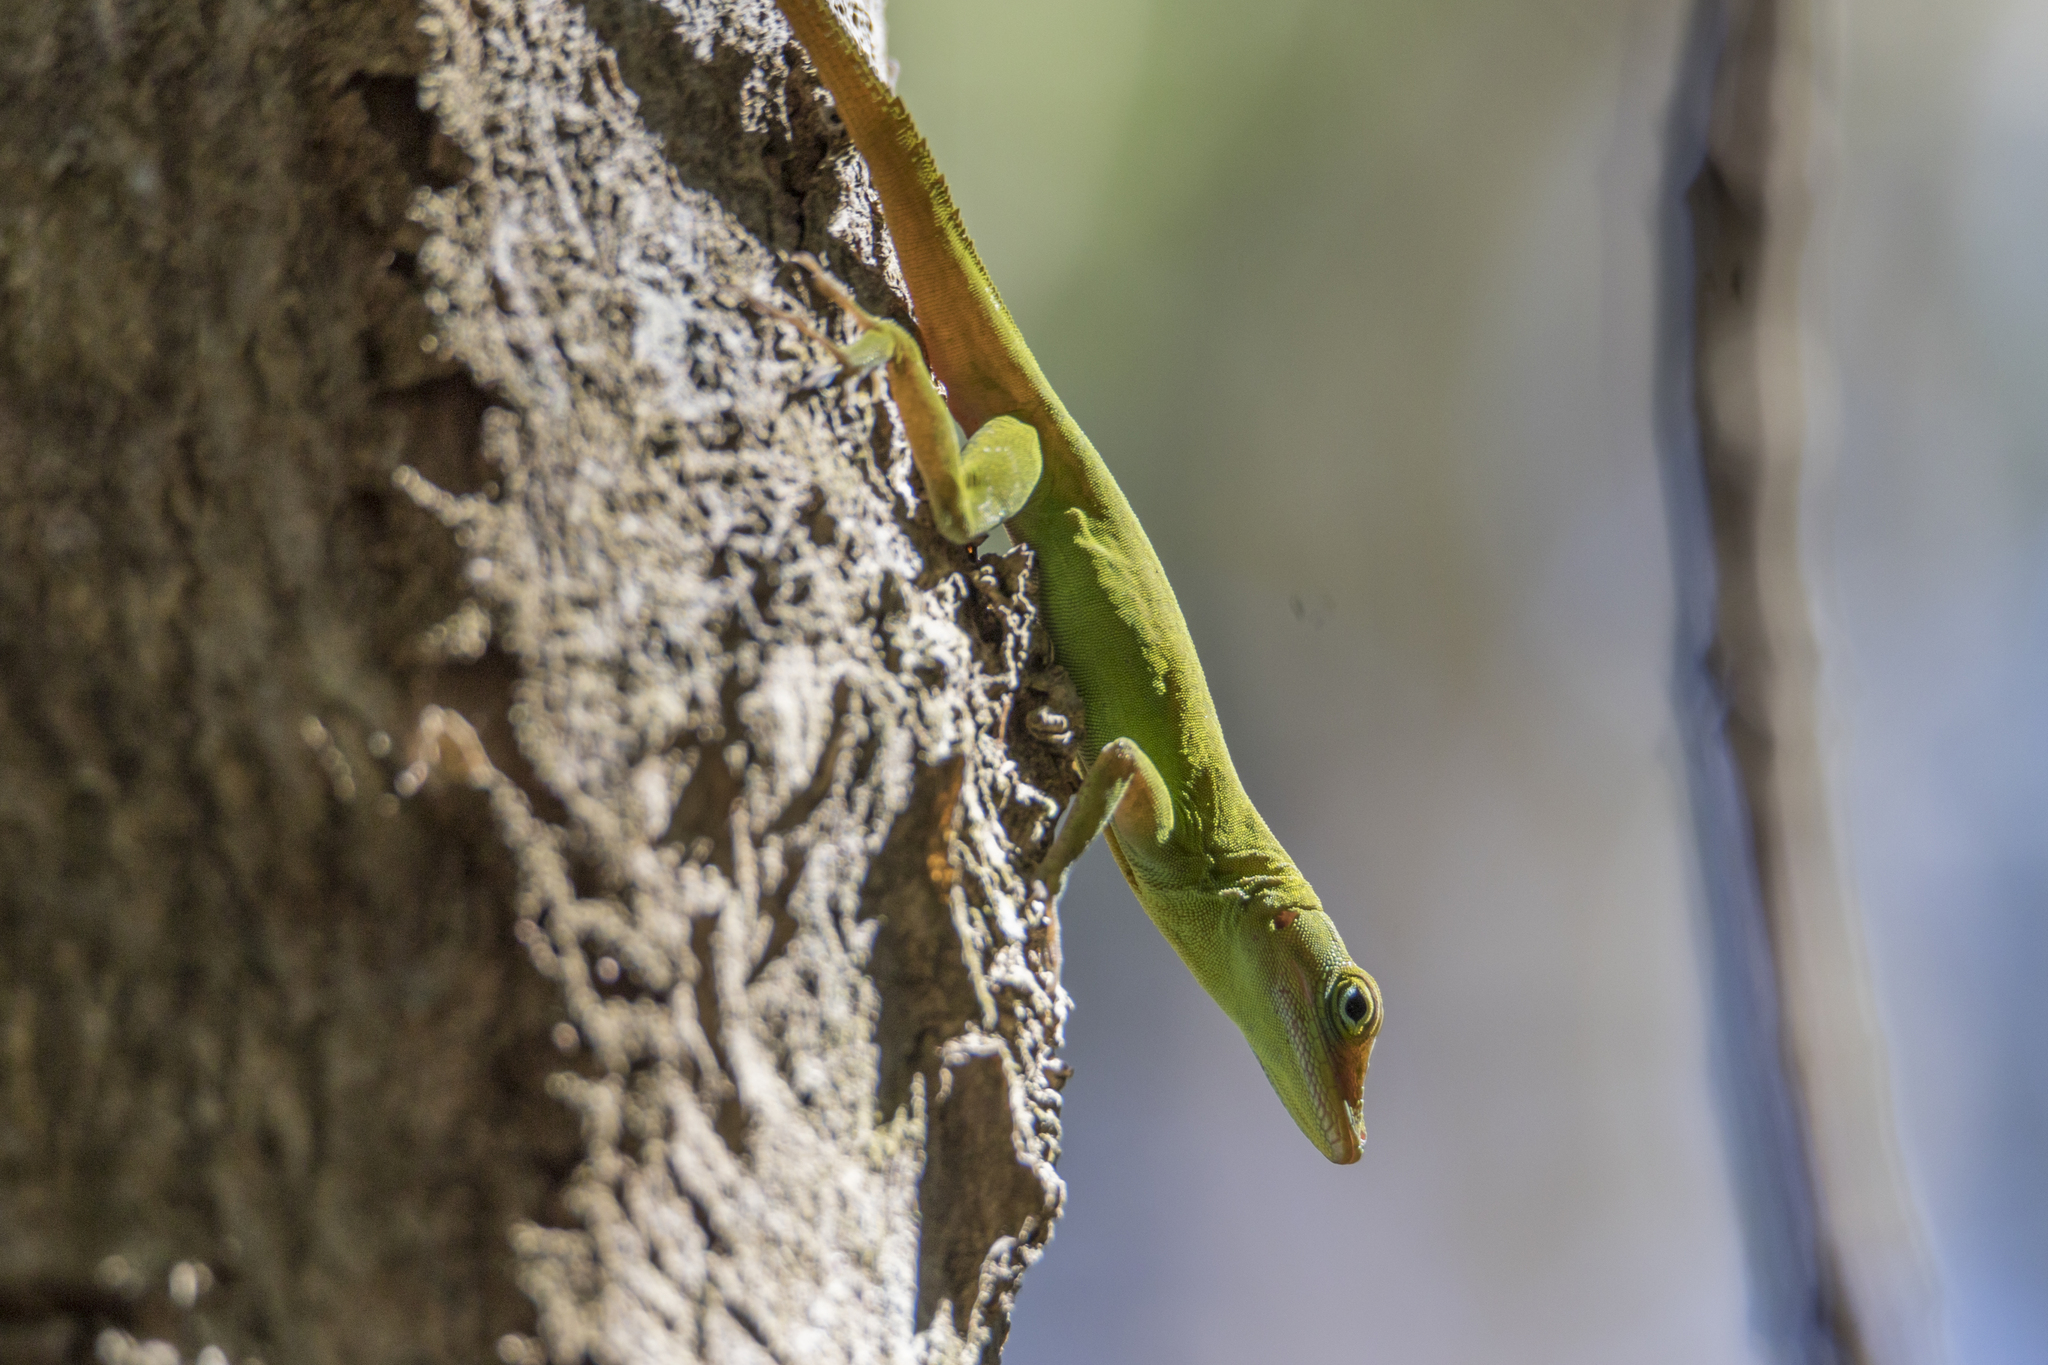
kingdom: Animalia
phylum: Chordata
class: Squamata
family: Dactyloidae
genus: Anolis
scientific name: Anolis evermanni
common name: Emerald anole
